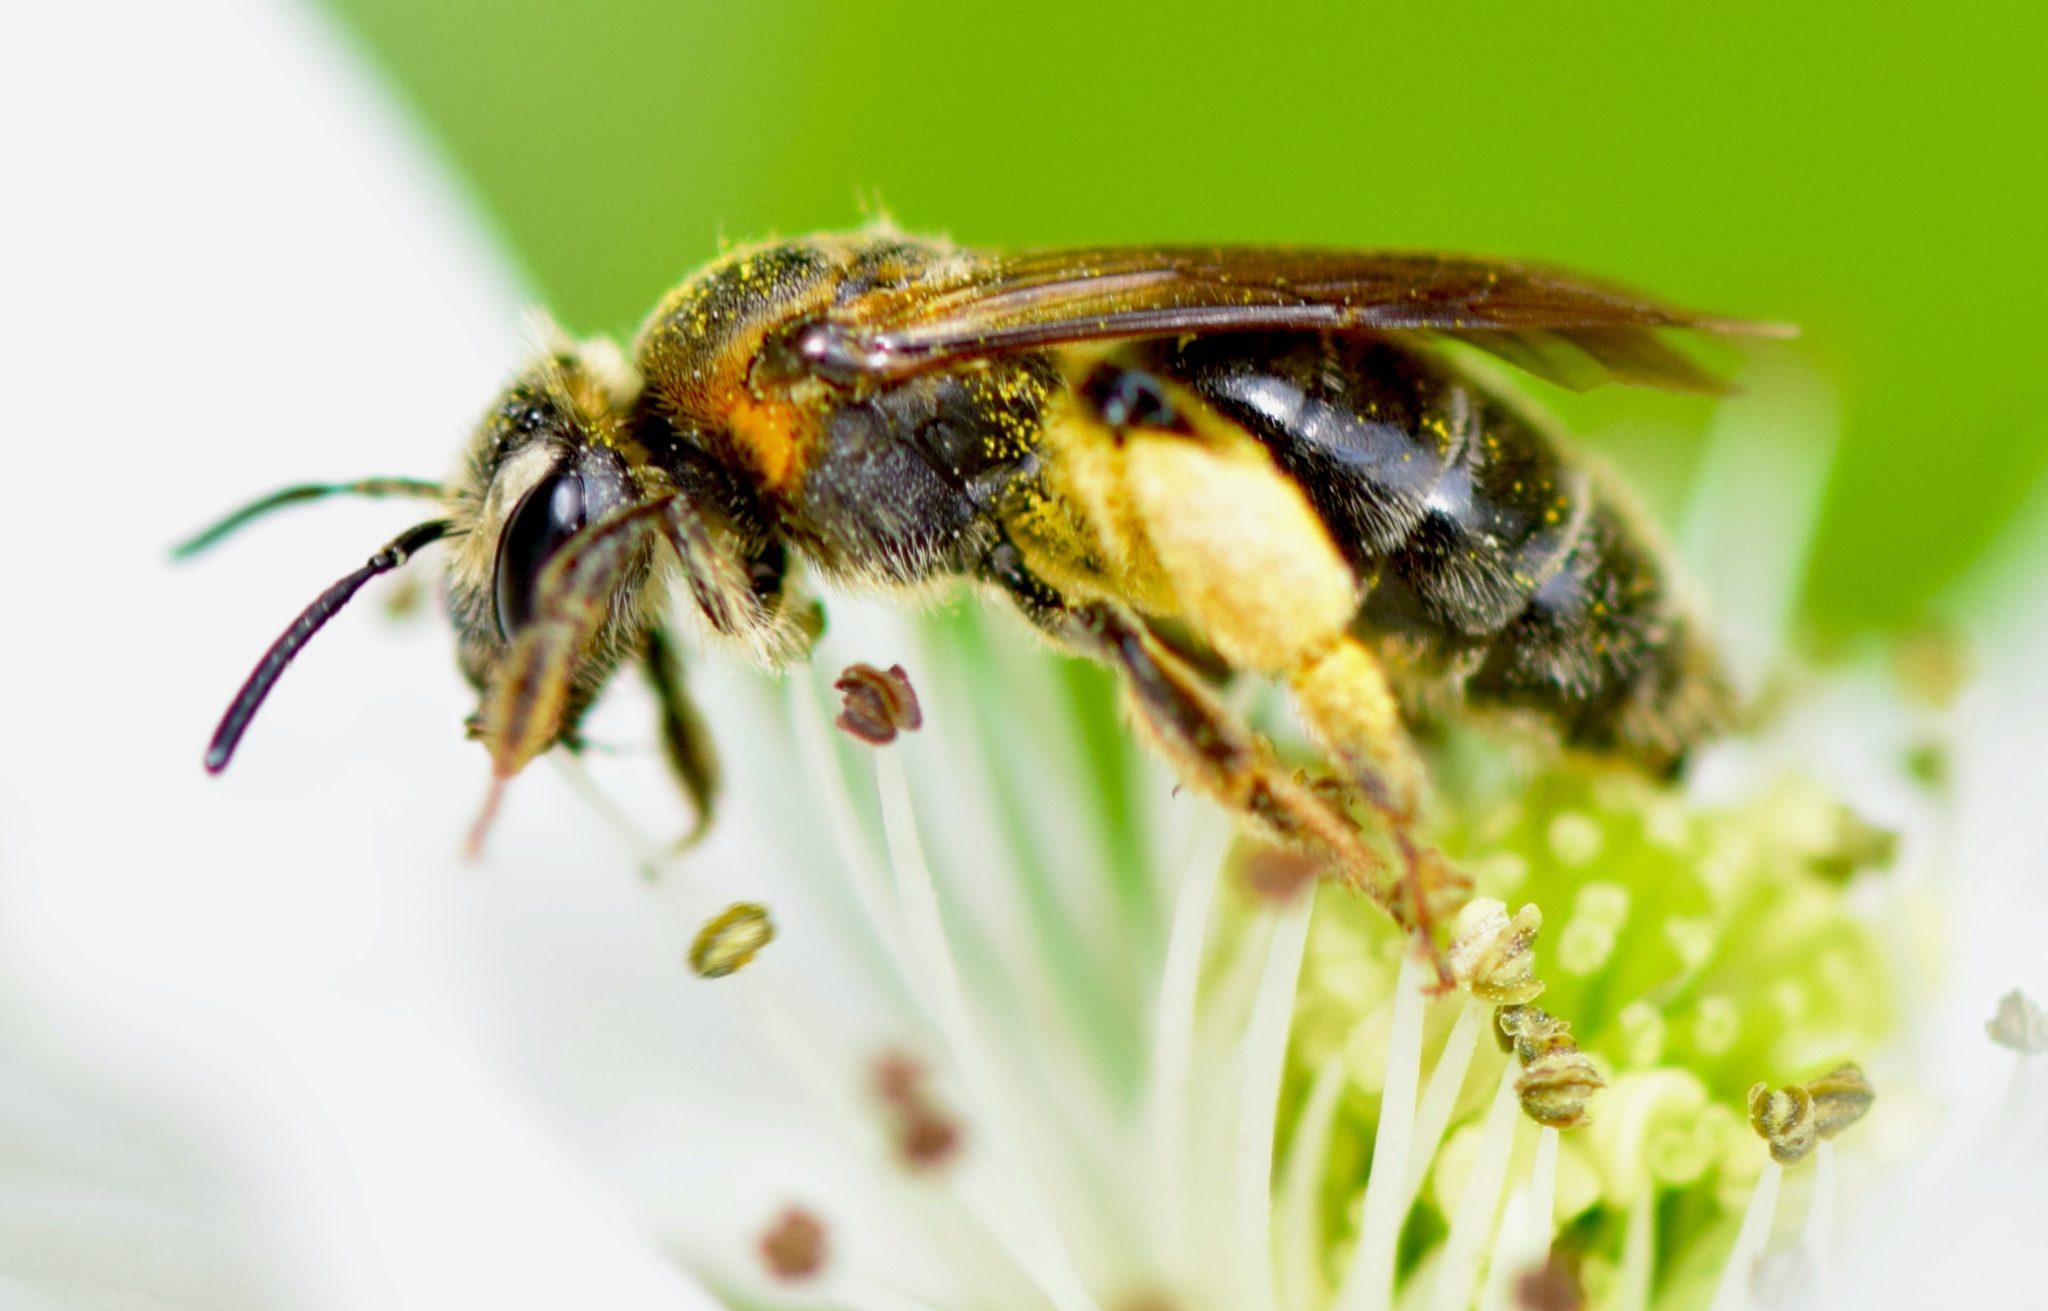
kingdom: Animalia
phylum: Arthropoda
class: Insecta
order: Hymenoptera
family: Andrenidae
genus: Andrena
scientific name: Andrena alleghaniensis
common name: Allegheny mining bee
